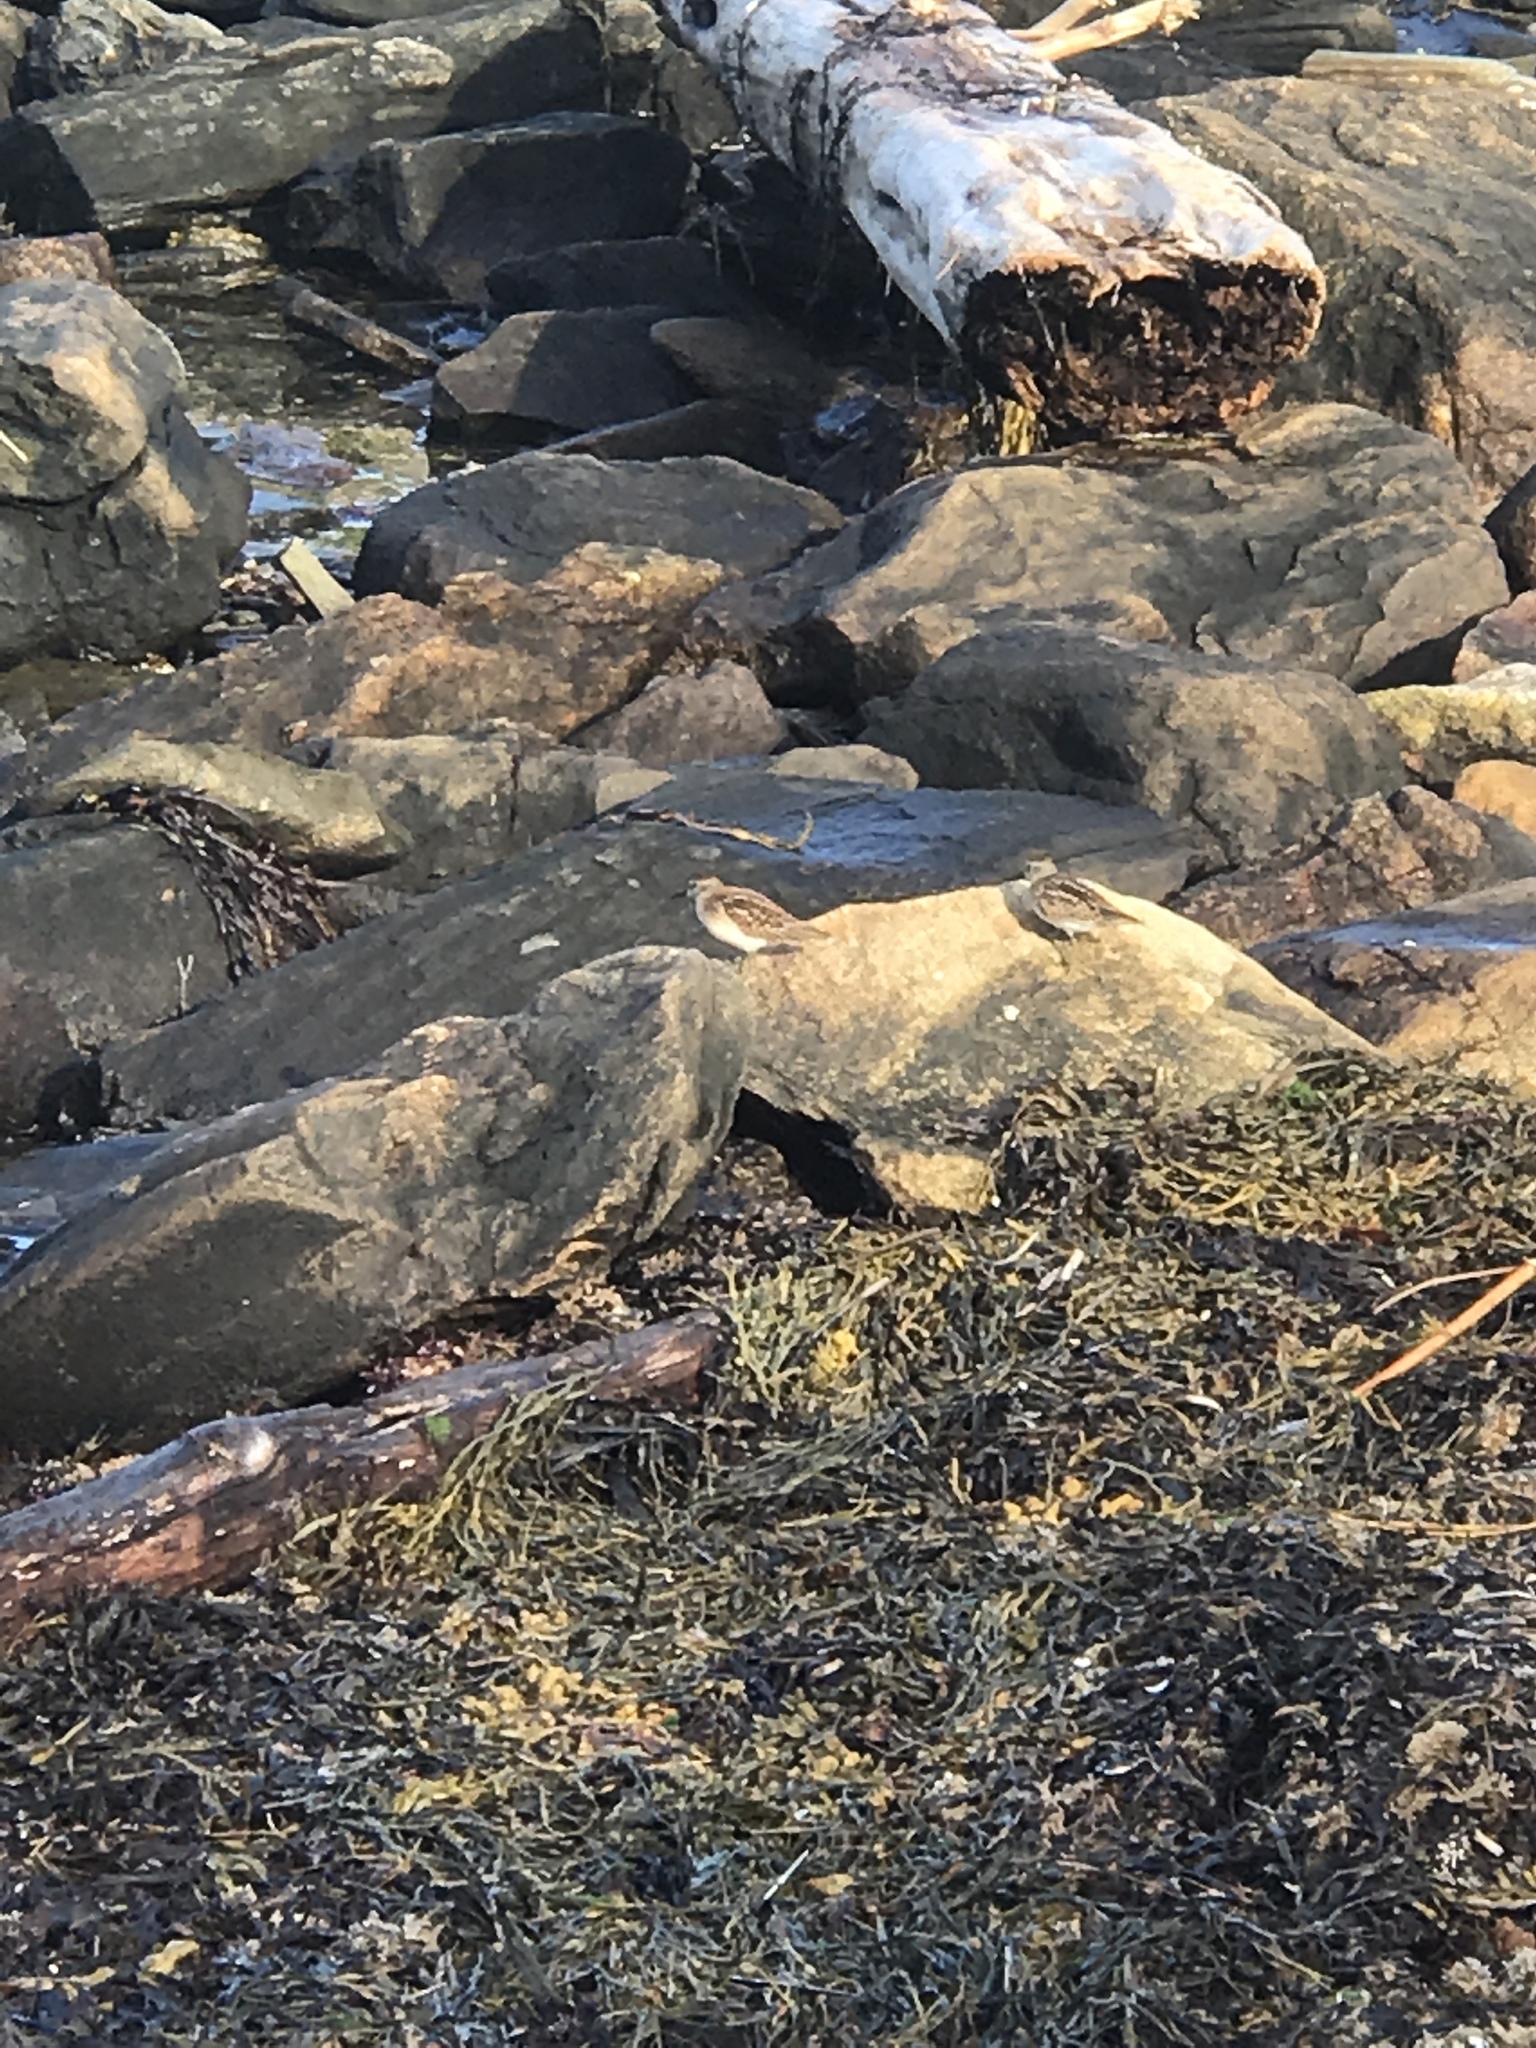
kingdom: Animalia
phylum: Chordata
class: Aves
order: Charadriiformes
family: Scolopacidae
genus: Calidris
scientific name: Calidris minutilla
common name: Least sandpiper
